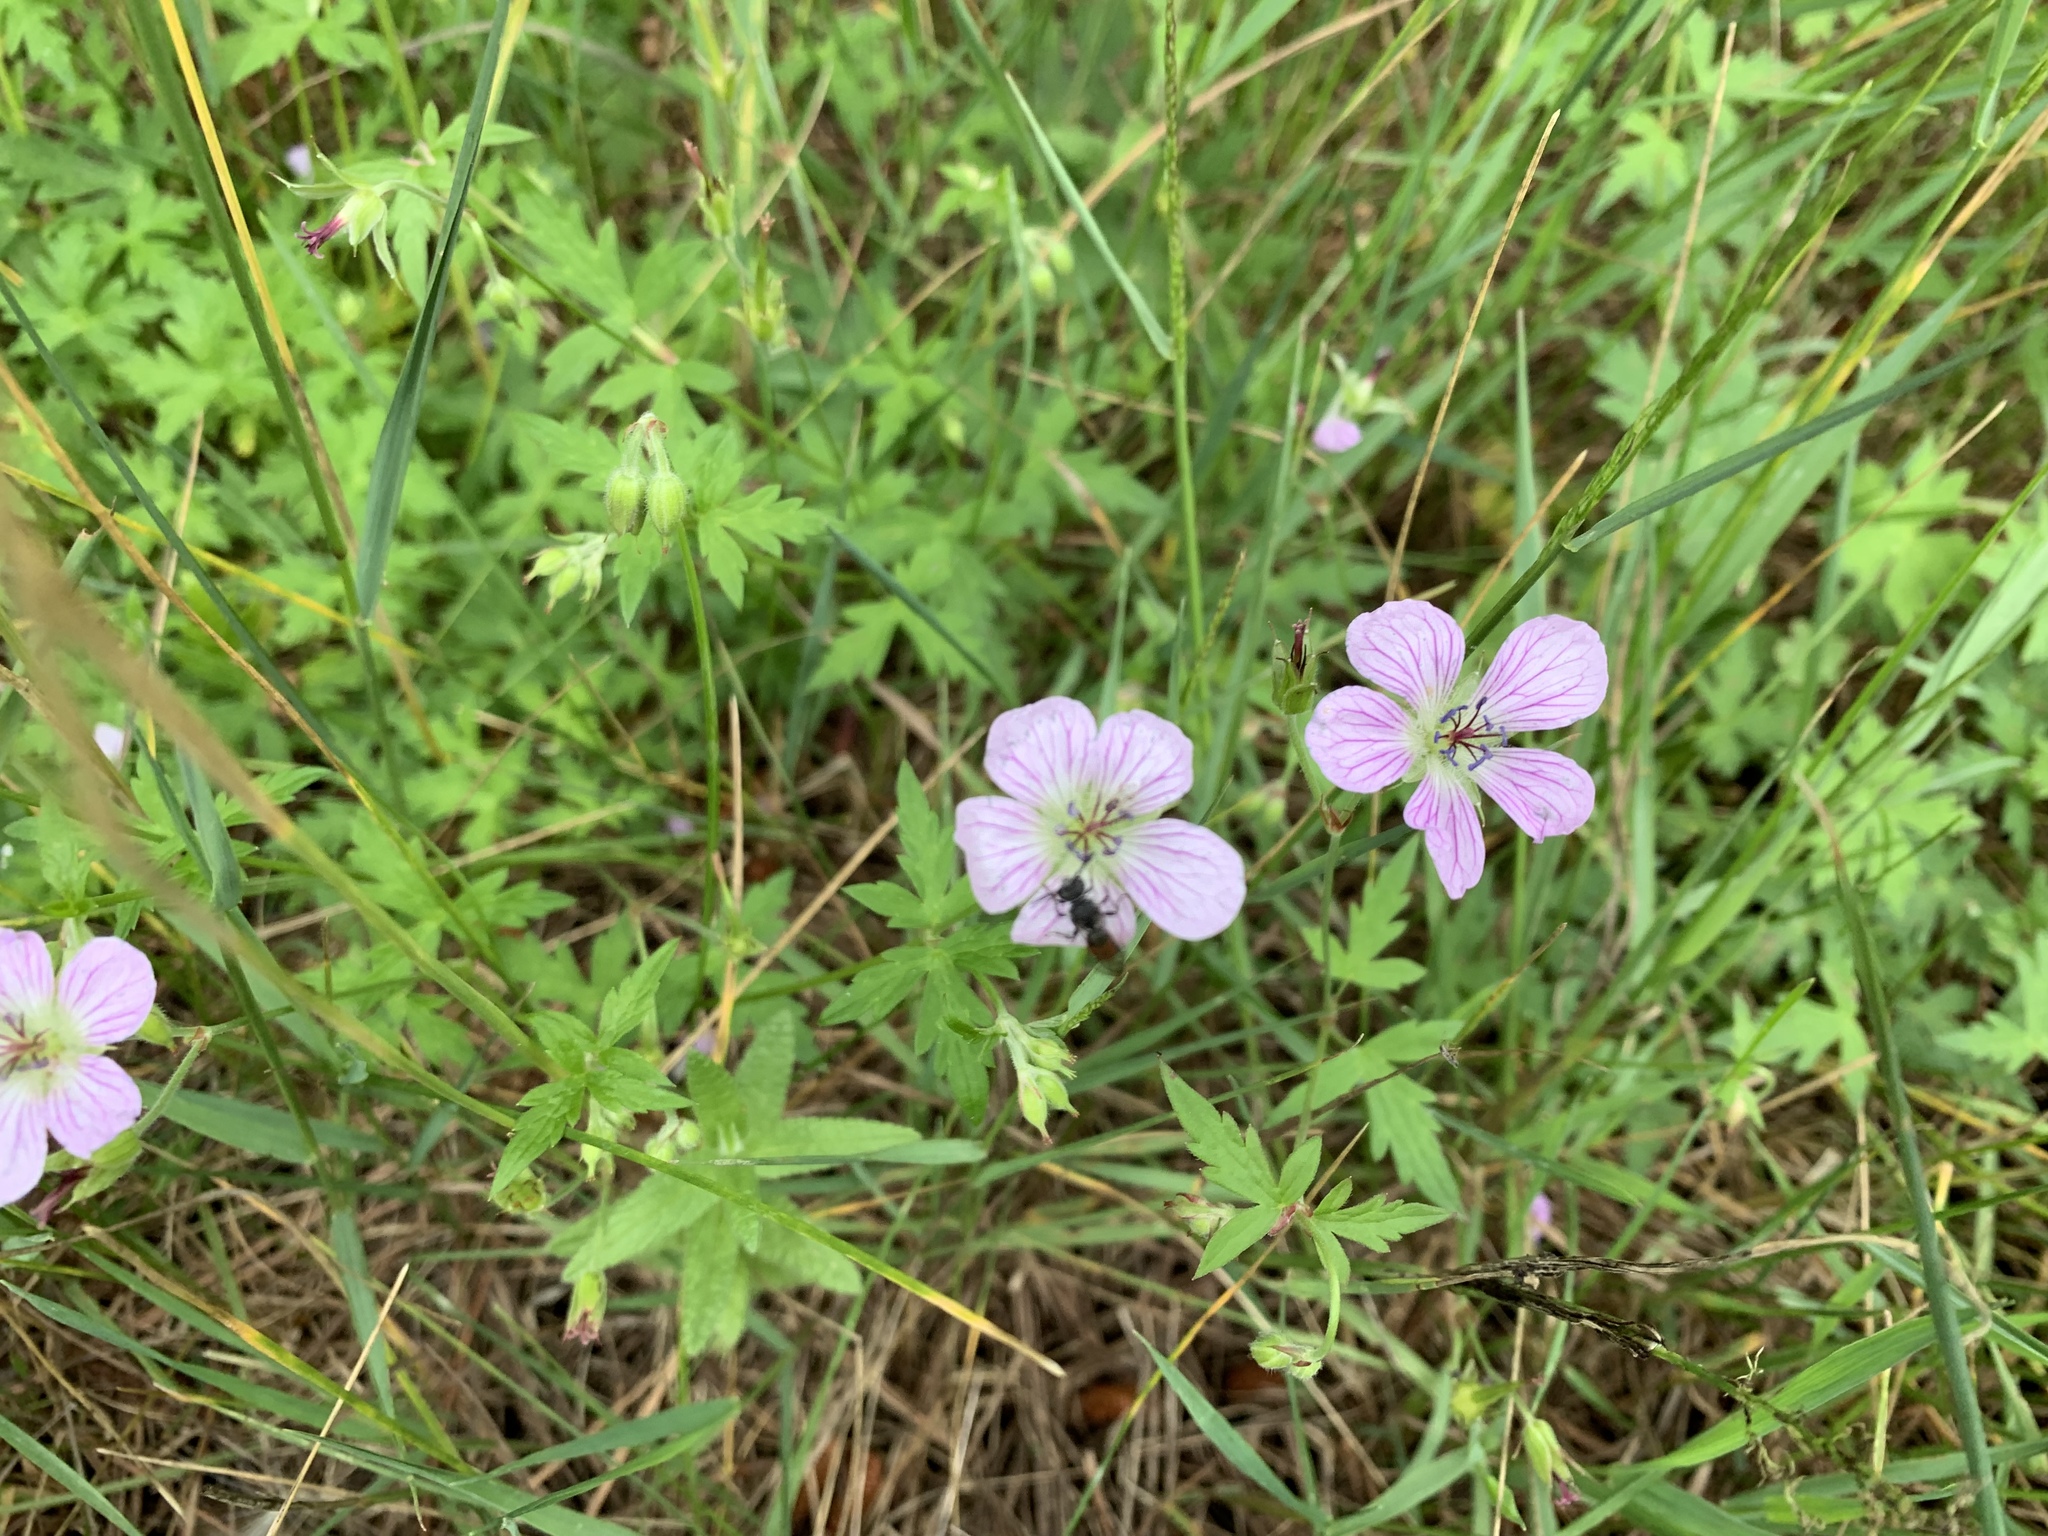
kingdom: Plantae
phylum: Tracheophyta
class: Magnoliopsida
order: Geraniales
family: Geraniaceae
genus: Geranium
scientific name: Geranium richardsonii
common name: Richardson's crane's-bill
